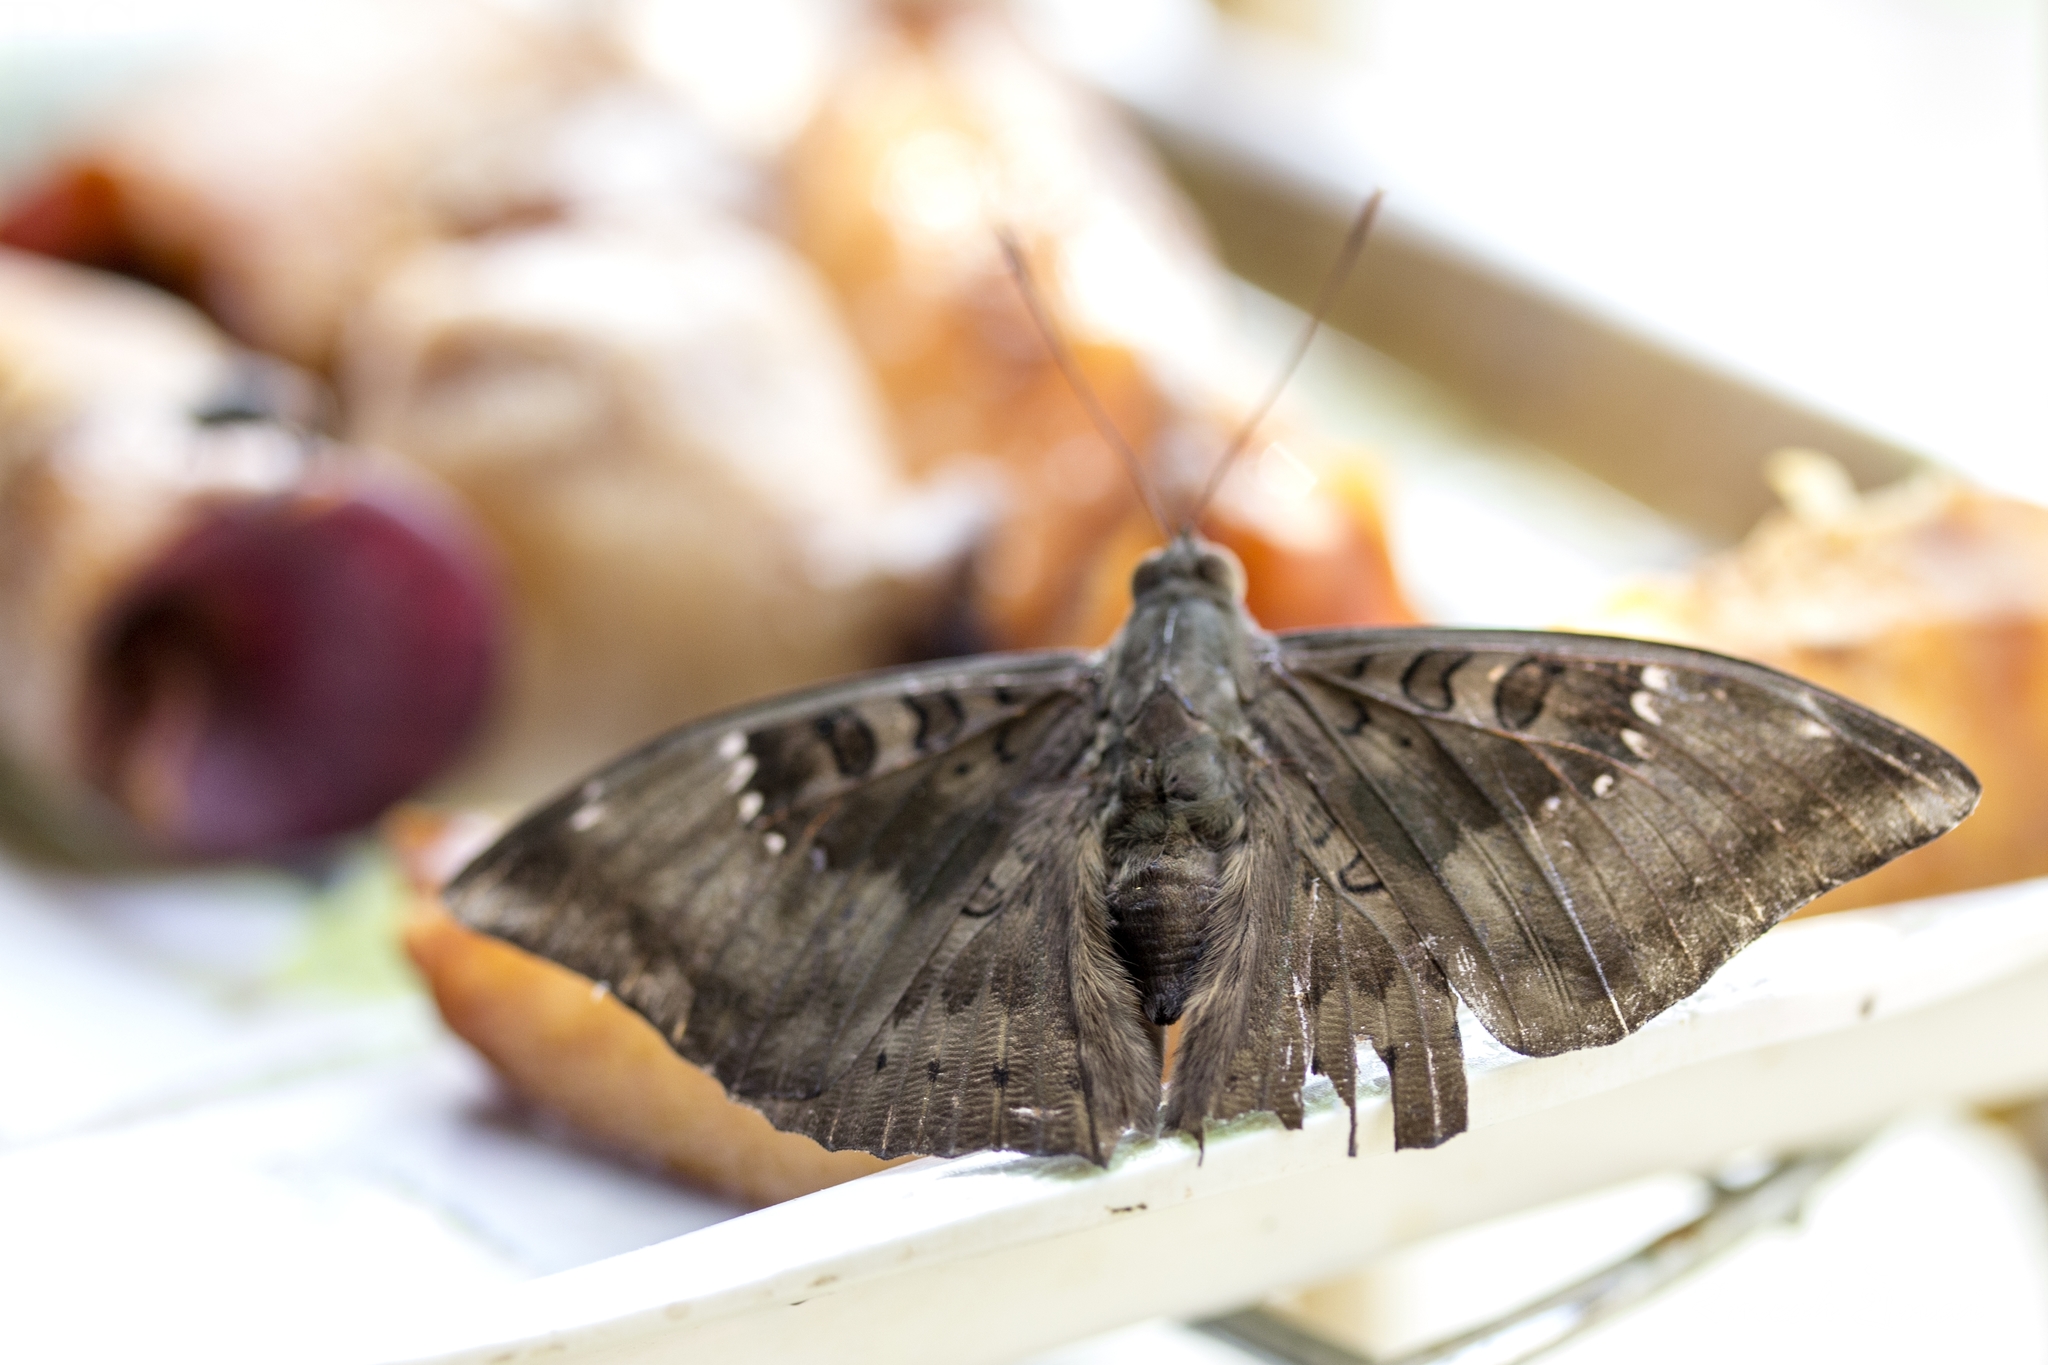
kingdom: Animalia
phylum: Arthropoda
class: Insecta
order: Lepidoptera
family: Nymphalidae
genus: Euthalia
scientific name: Euthalia aconthea
